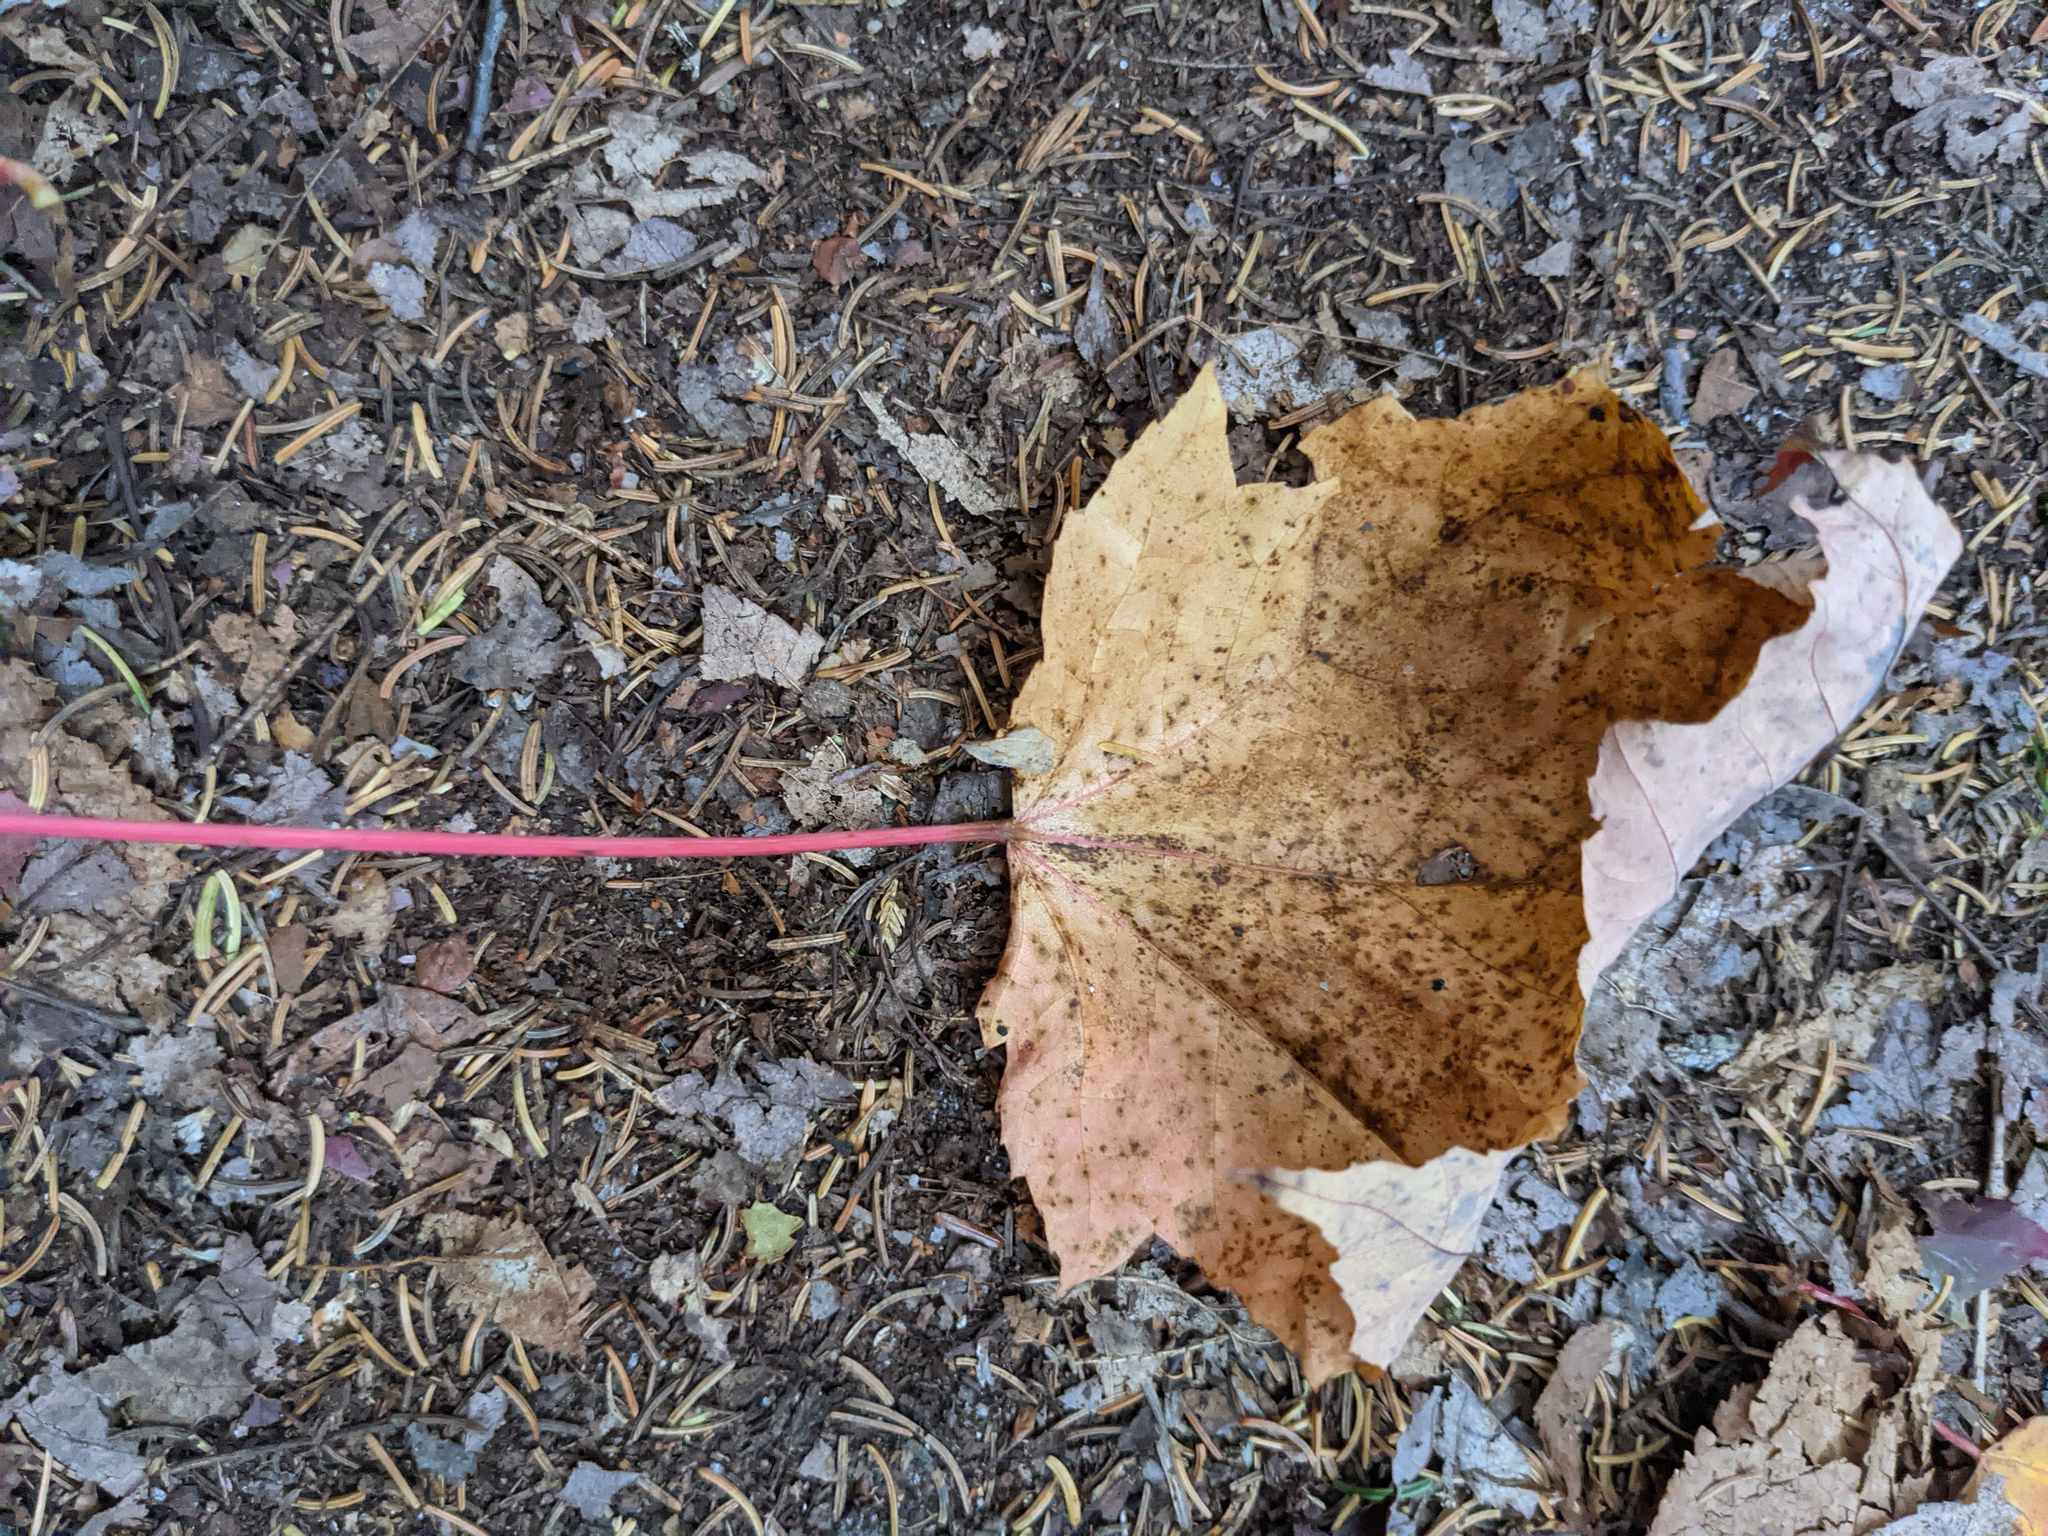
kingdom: Plantae
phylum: Tracheophyta
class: Magnoliopsida
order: Sapindales
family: Sapindaceae
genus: Acer
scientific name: Acer rubrum
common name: Red maple
